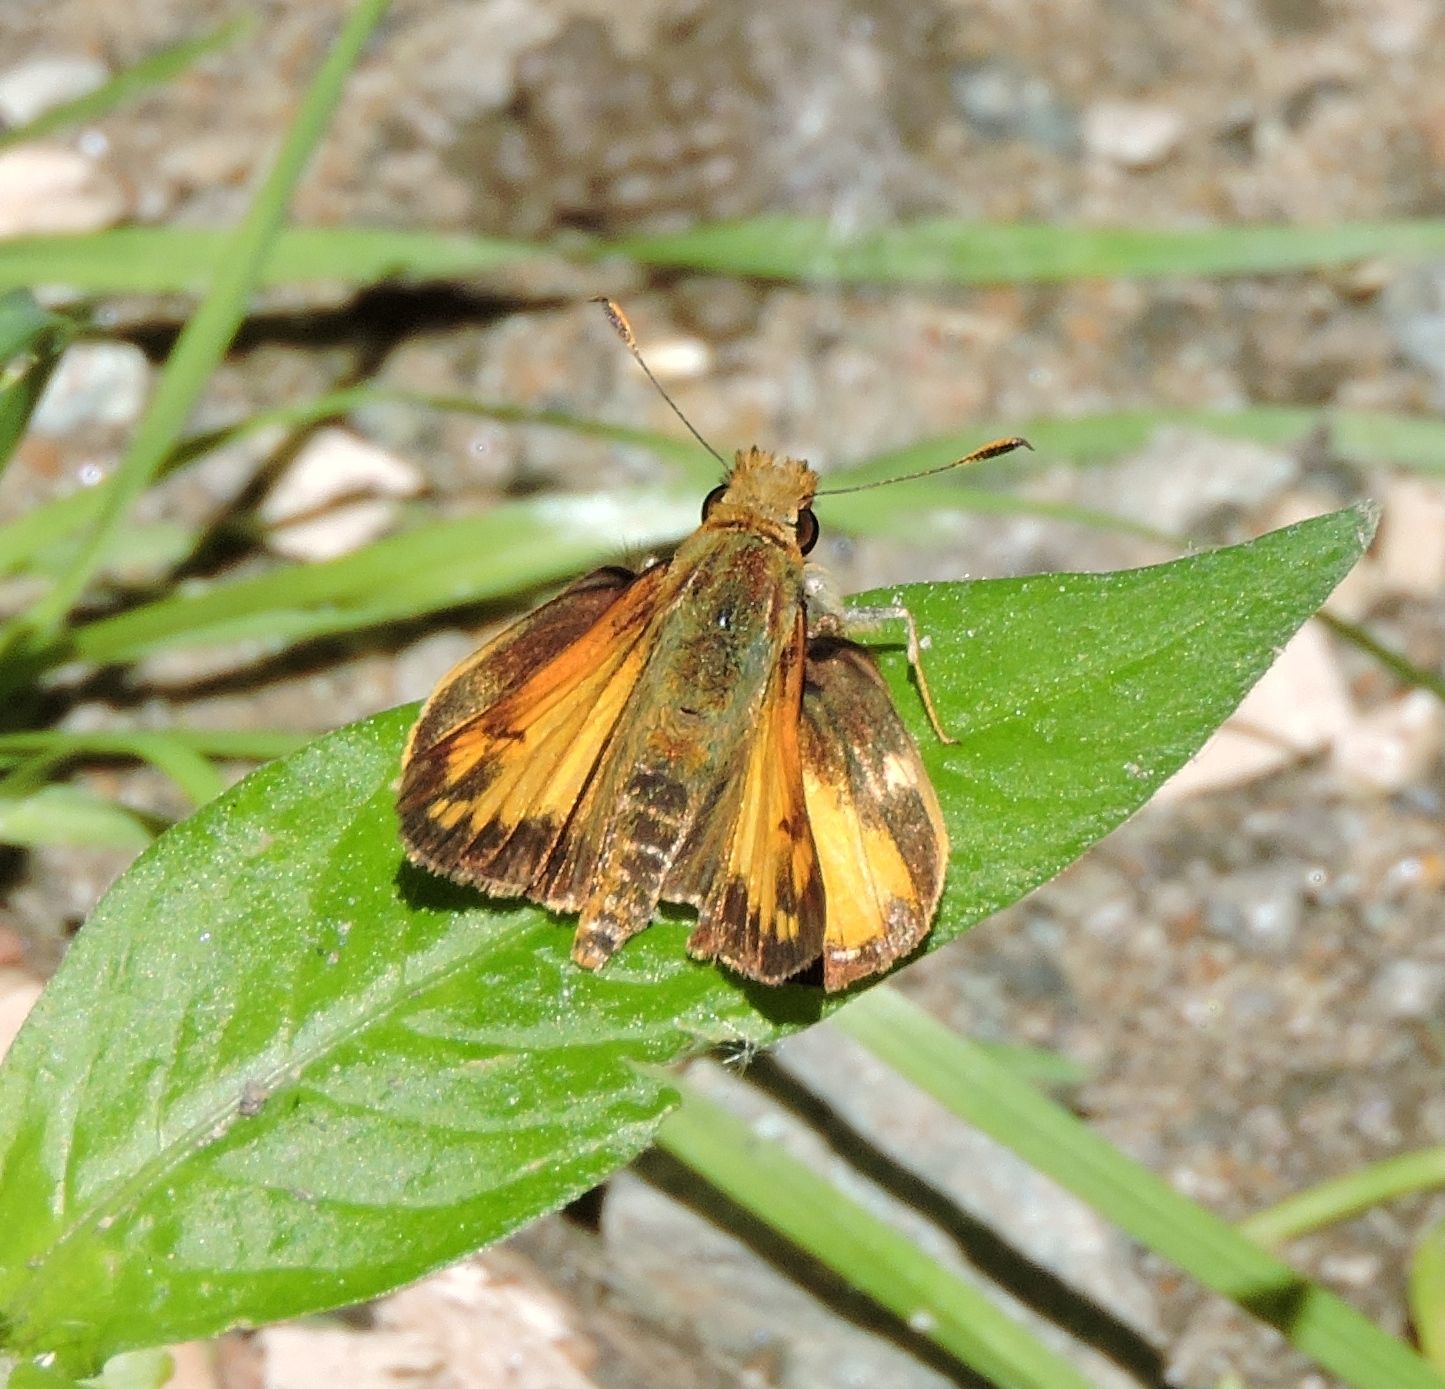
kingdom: Animalia
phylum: Arthropoda
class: Insecta
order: Lepidoptera
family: Hesperiidae
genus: Lon
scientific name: Lon zabulon
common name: Zabulon skipper
